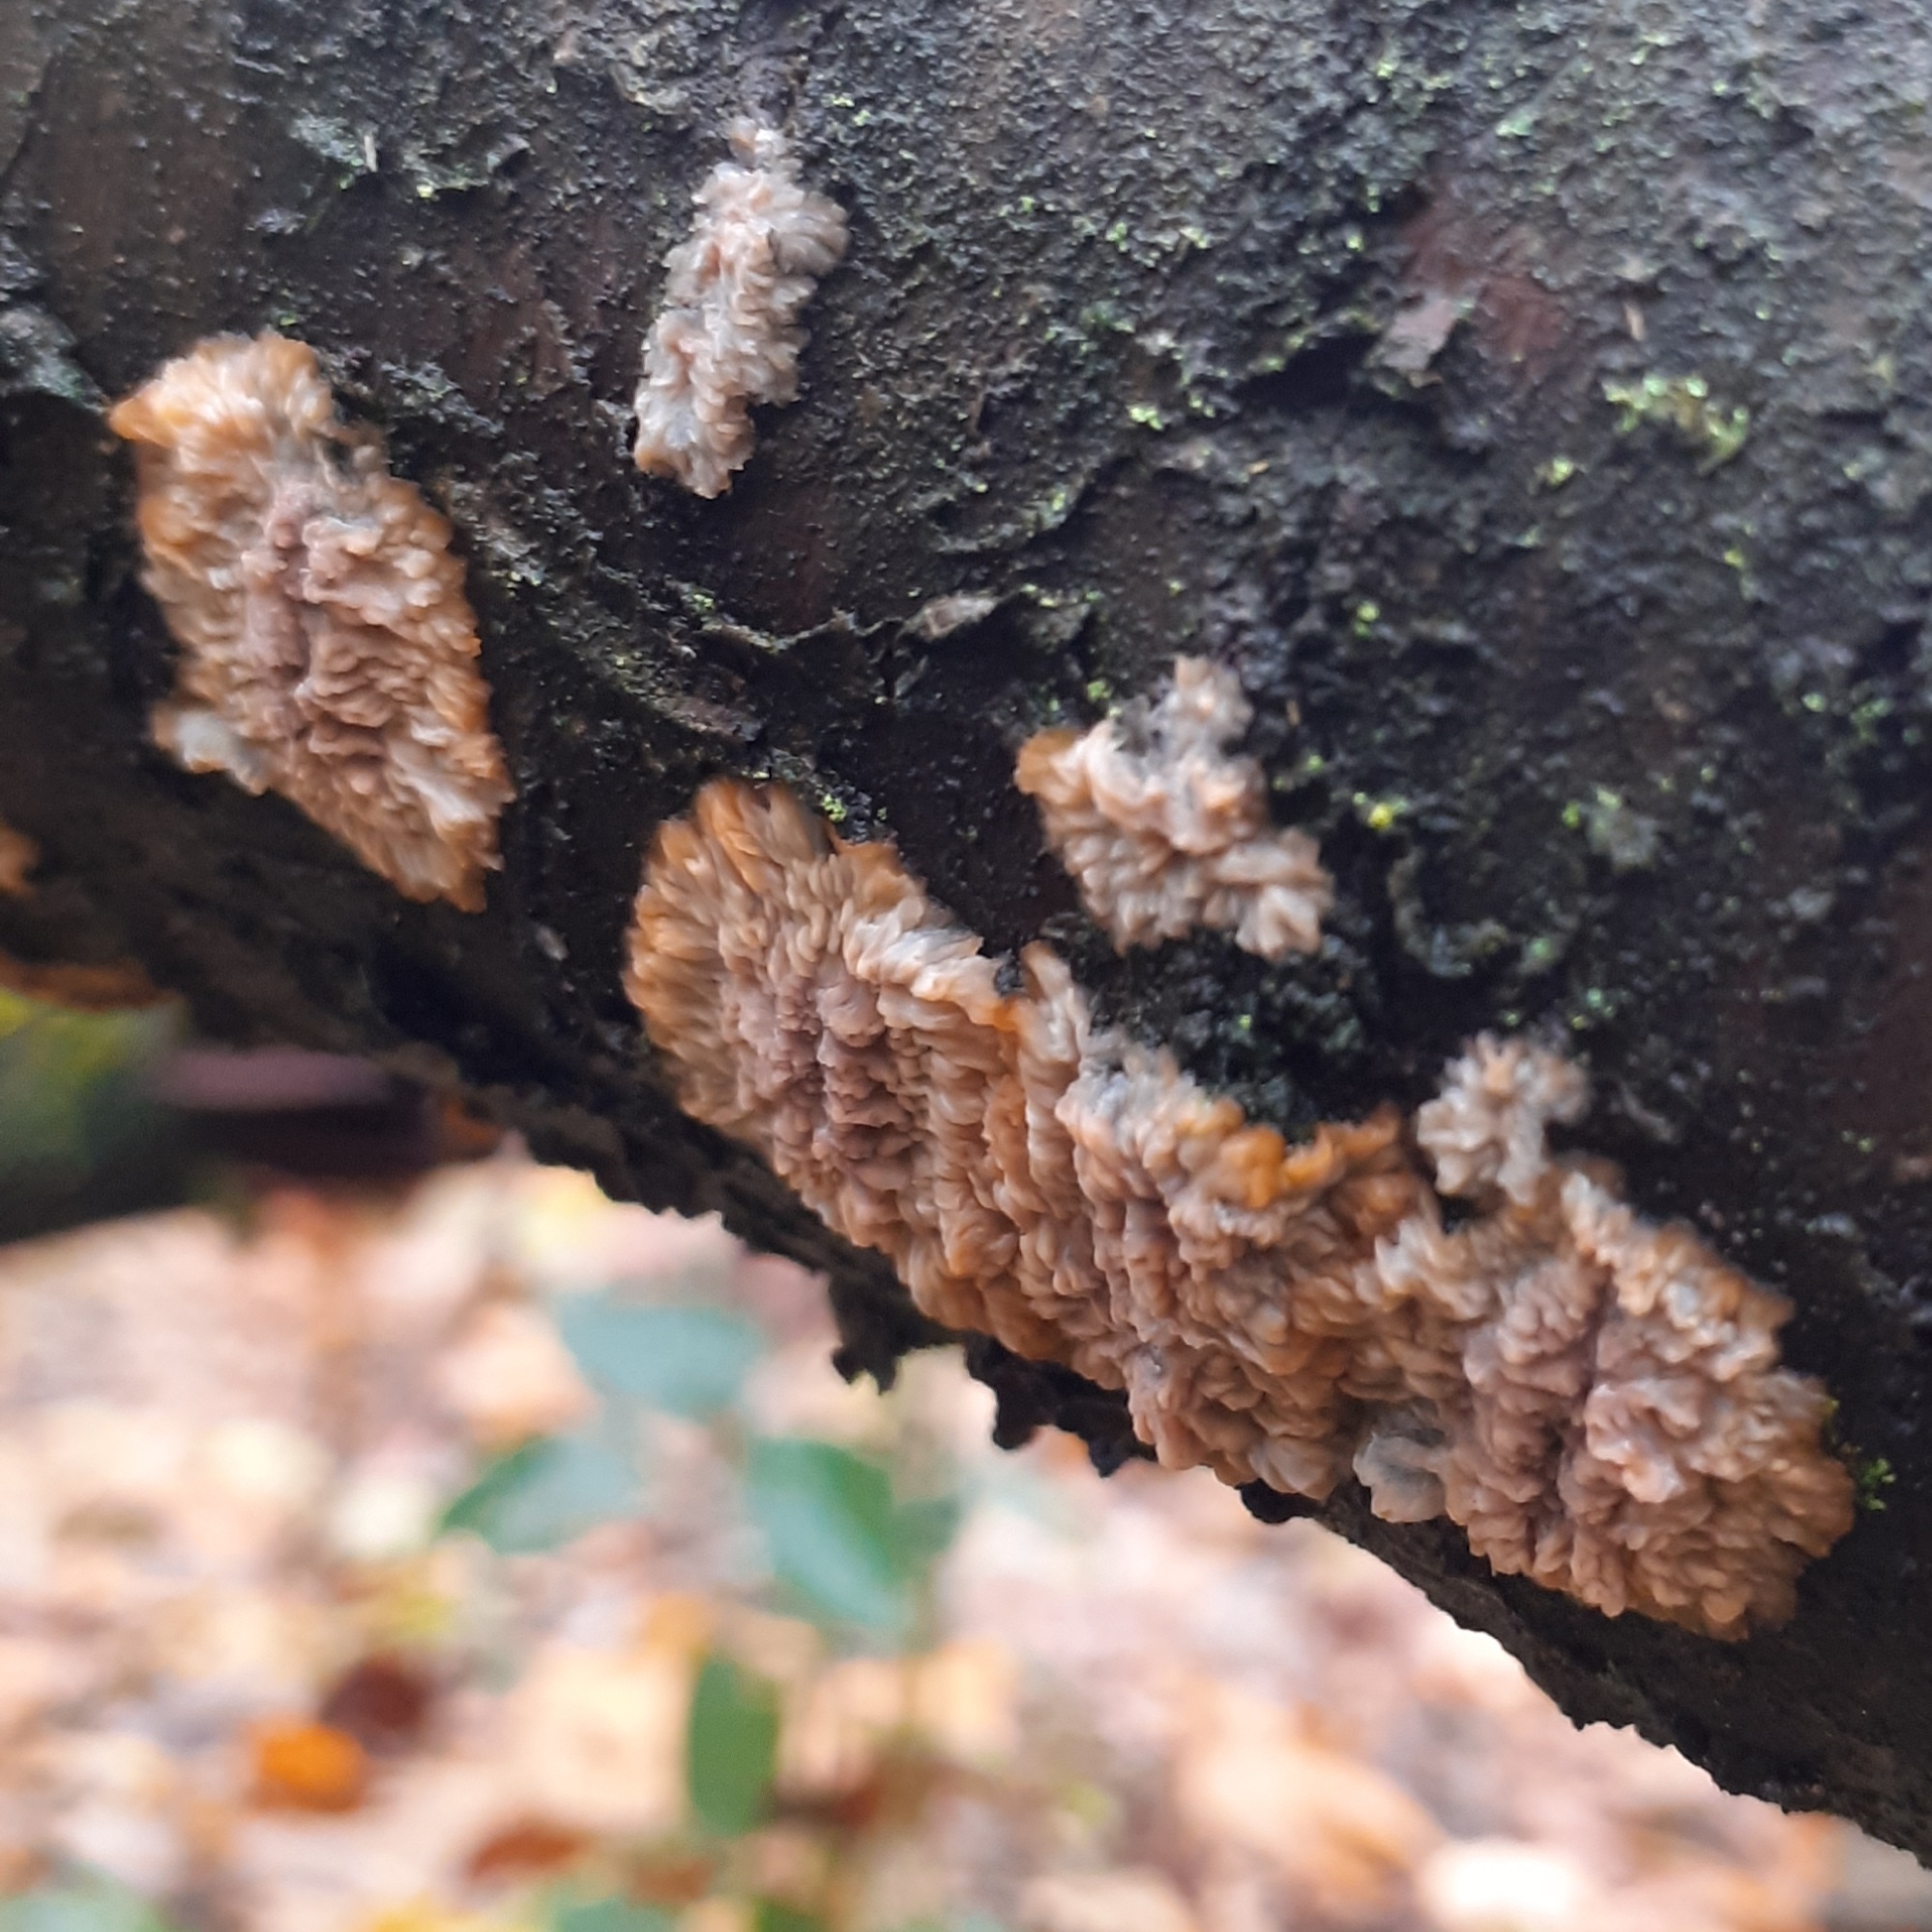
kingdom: Fungi
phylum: Basidiomycota
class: Agaricomycetes
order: Polyporales
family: Meruliaceae
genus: Phlebia
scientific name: Phlebia radiata
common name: Wrinkled crust
